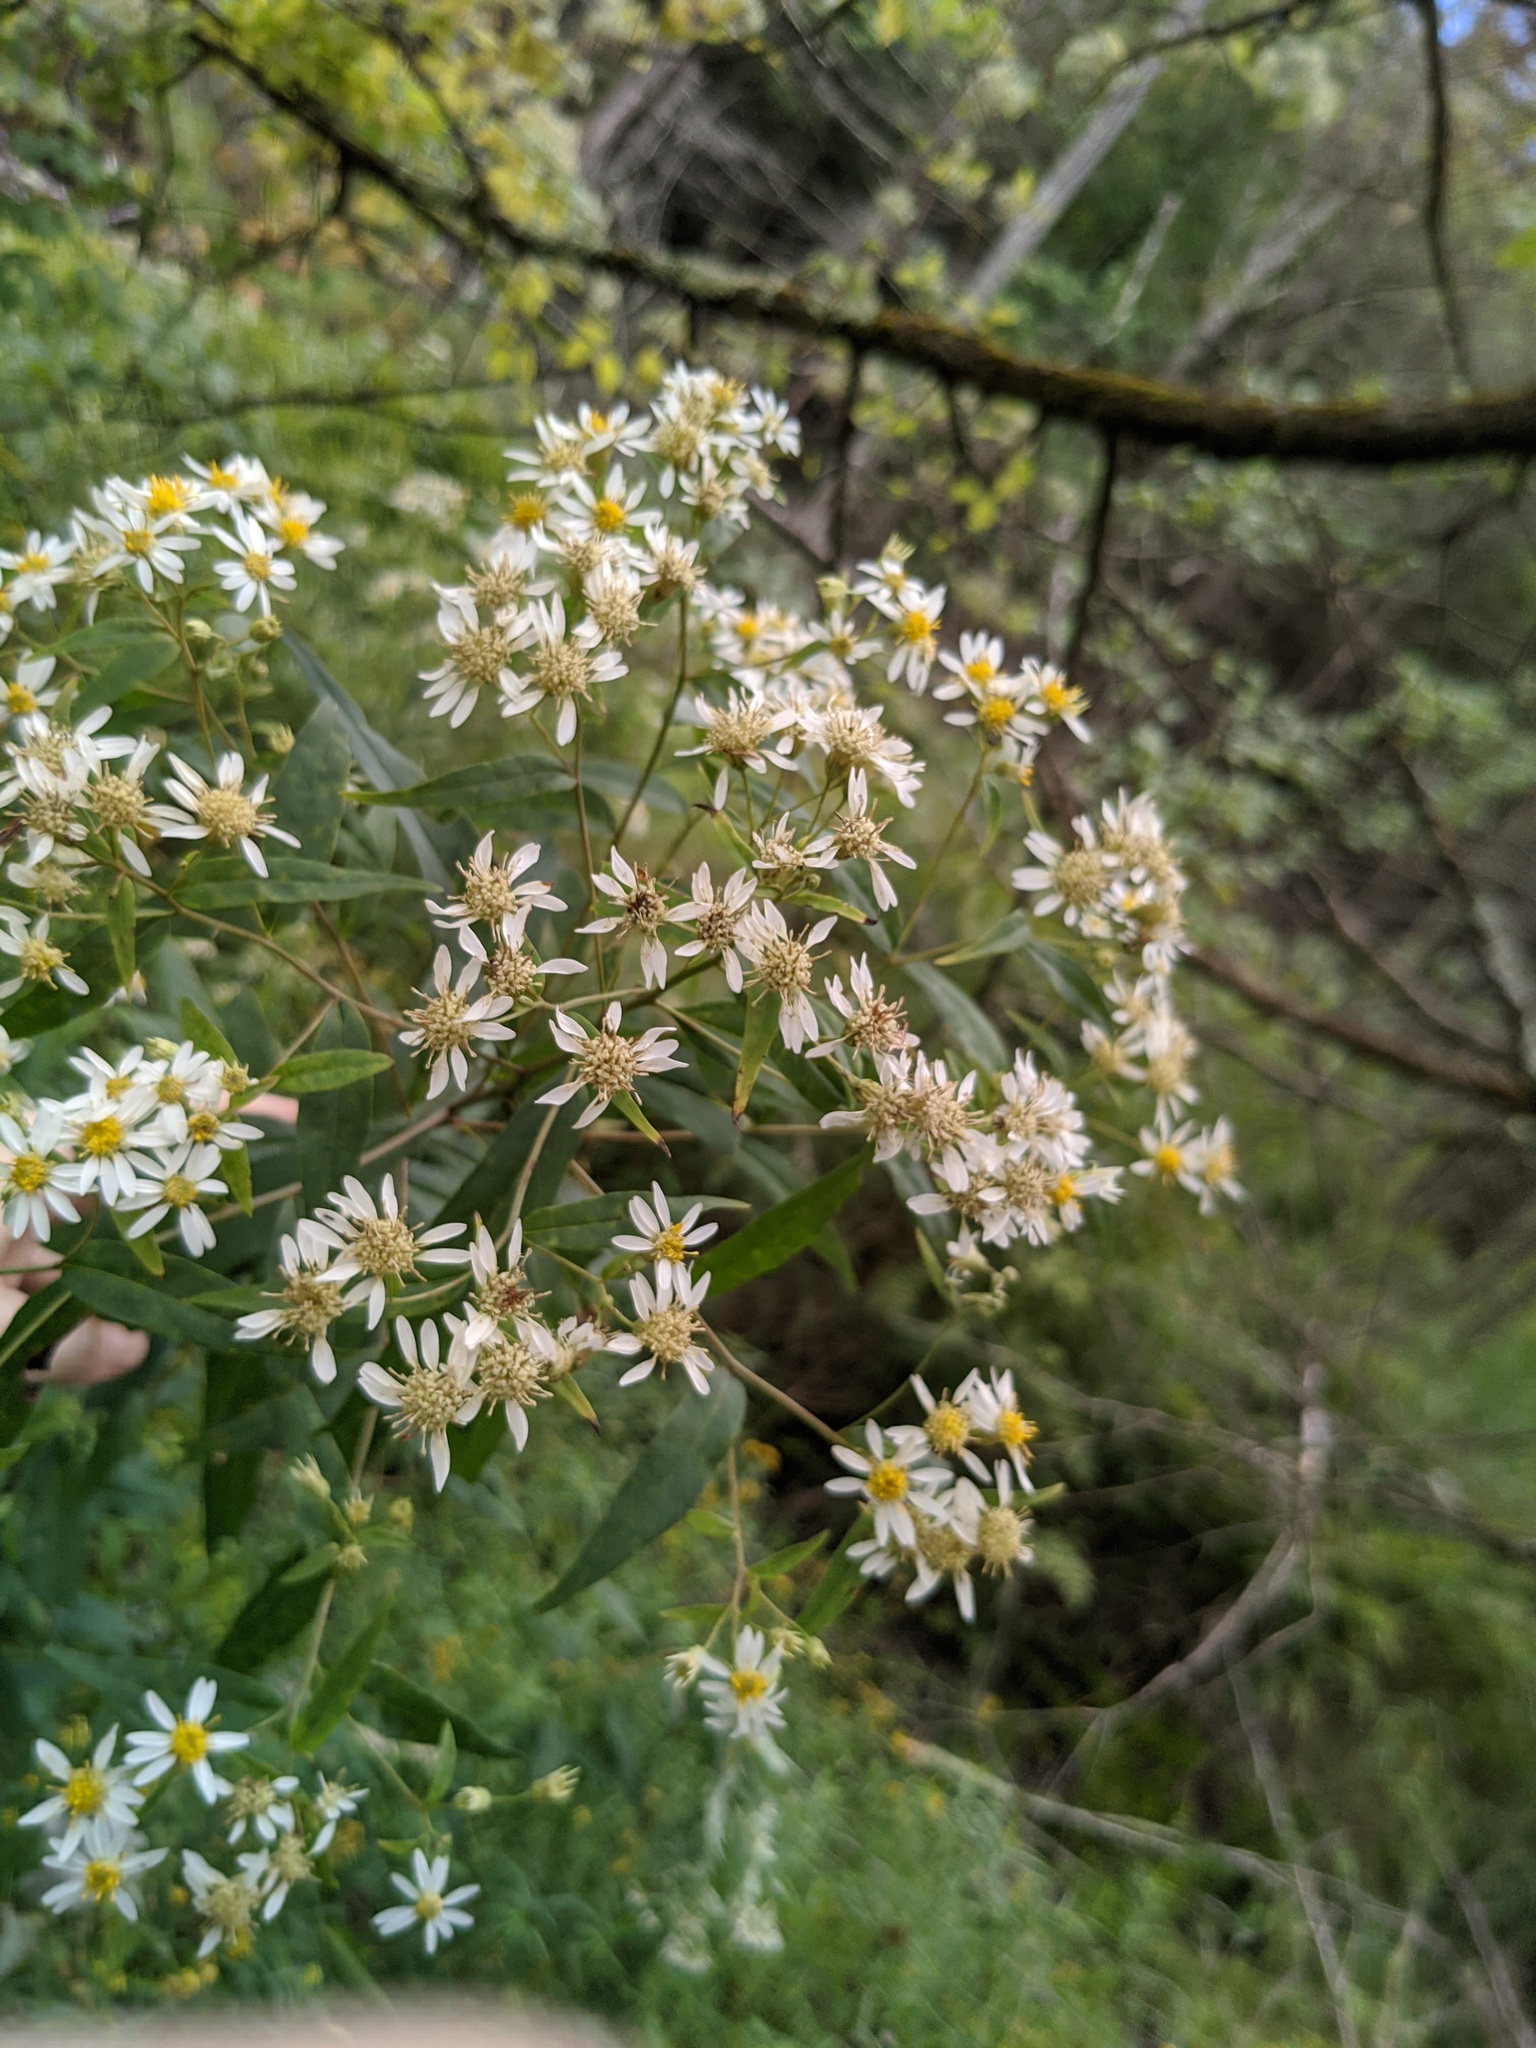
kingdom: Plantae
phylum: Tracheophyta
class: Magnoliopsida
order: Asterales
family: Asteraceae
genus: Doellingeria
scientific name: Doellingeria umbellata
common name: Flat-top white aster
